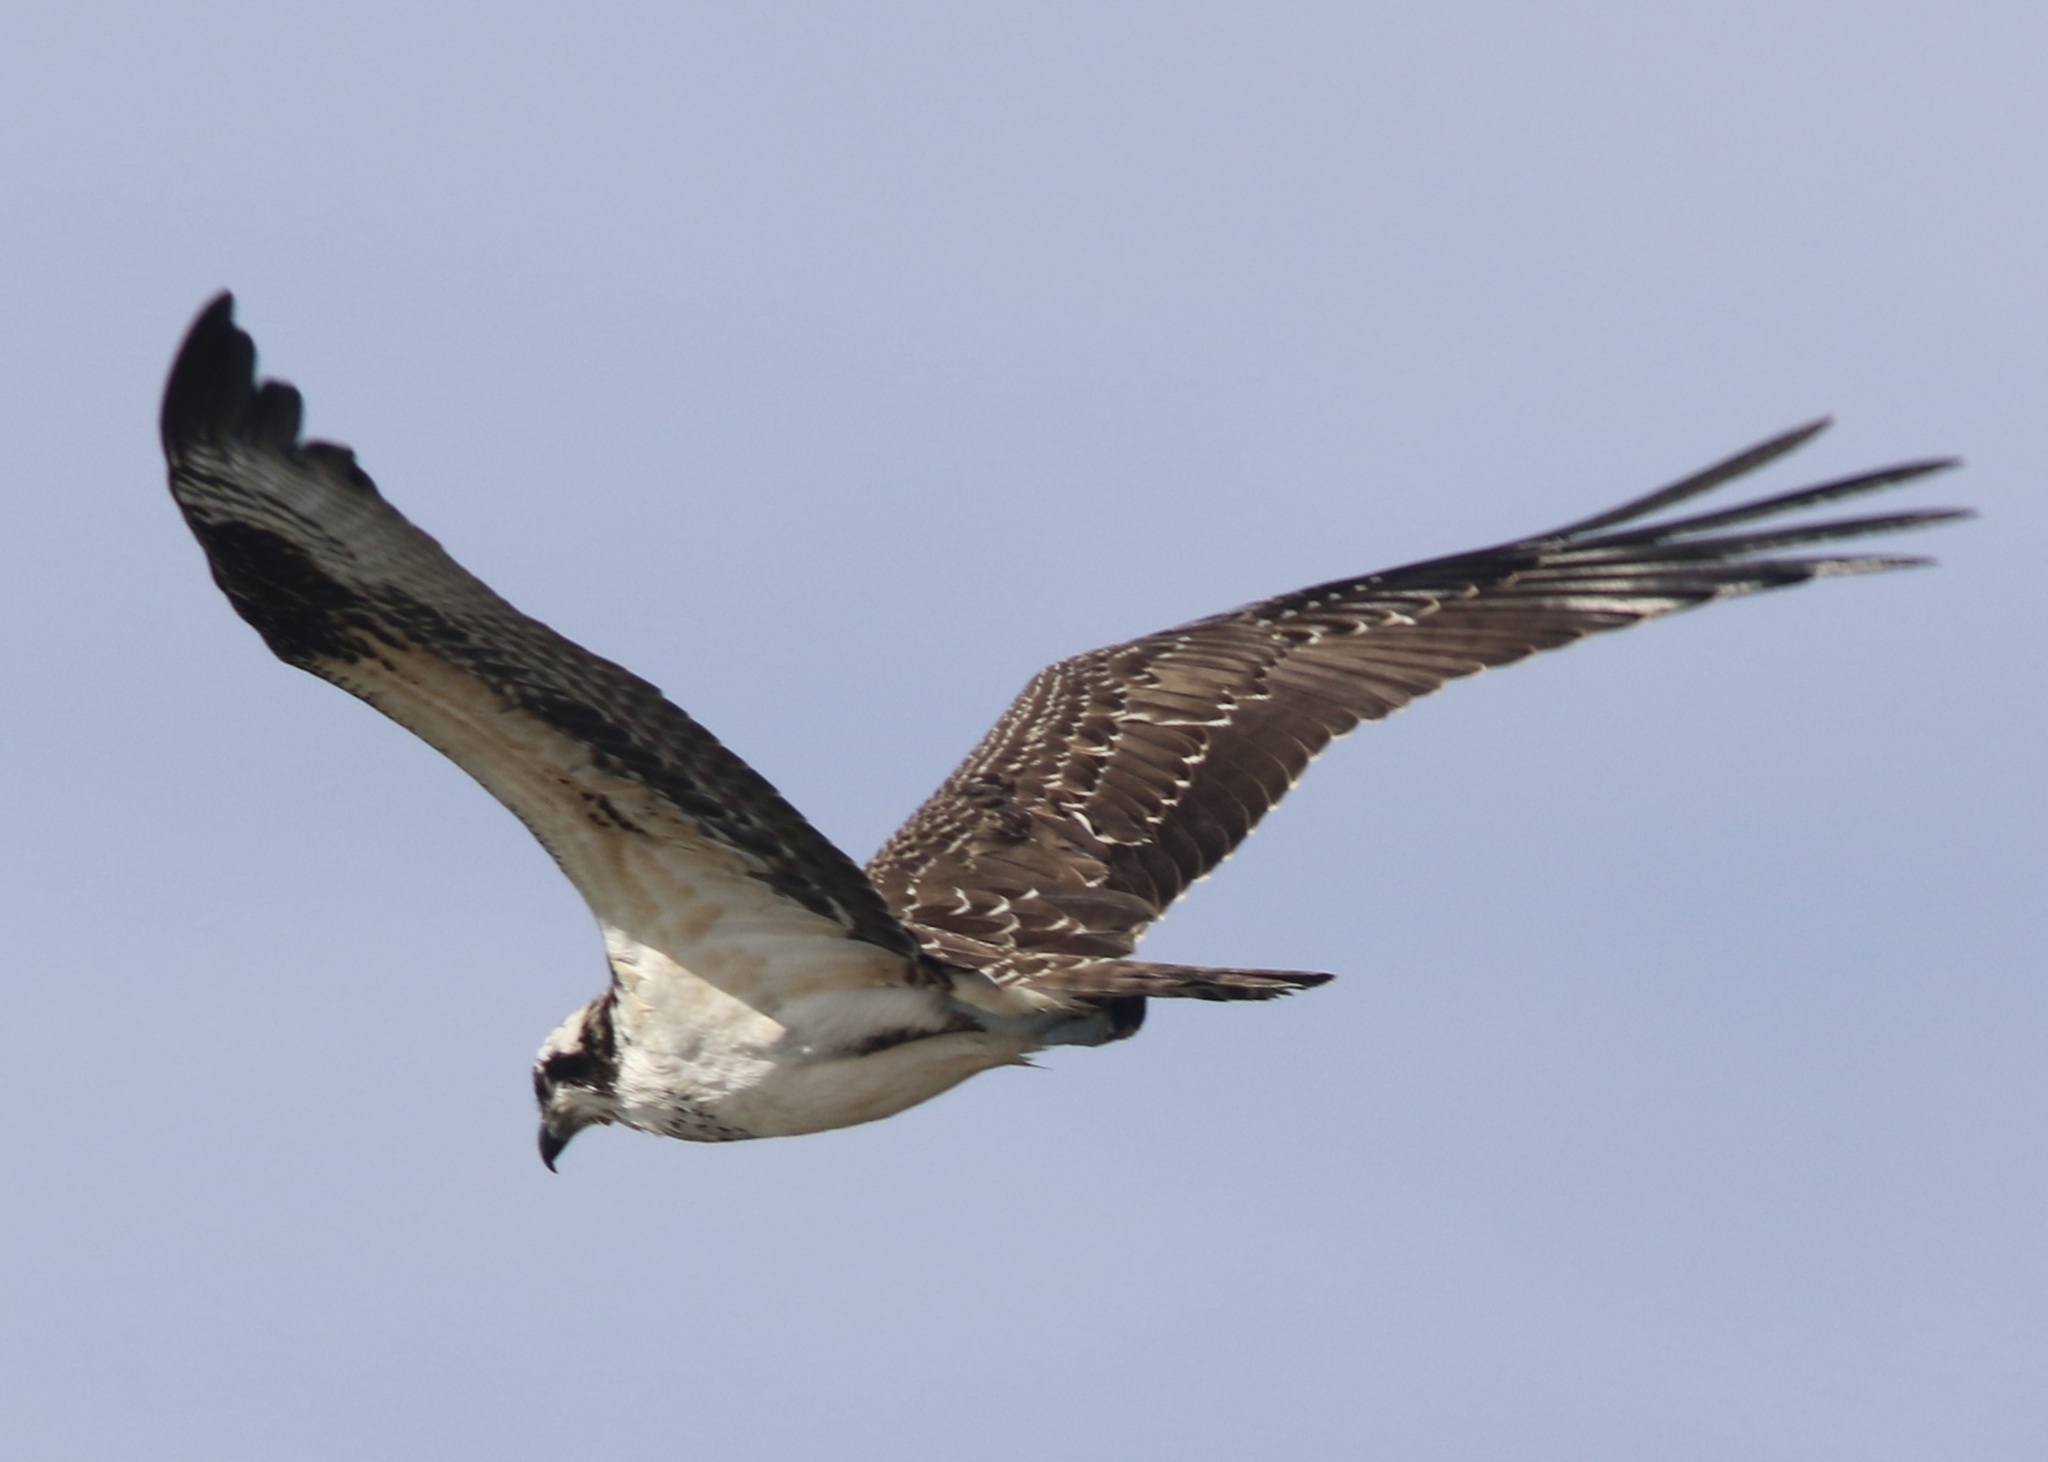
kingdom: Animalia
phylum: Chordata
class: Aves
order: Accipitriformes
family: Pandionidae
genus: Pandion
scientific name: Pandion haliaetus
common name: Osprey
